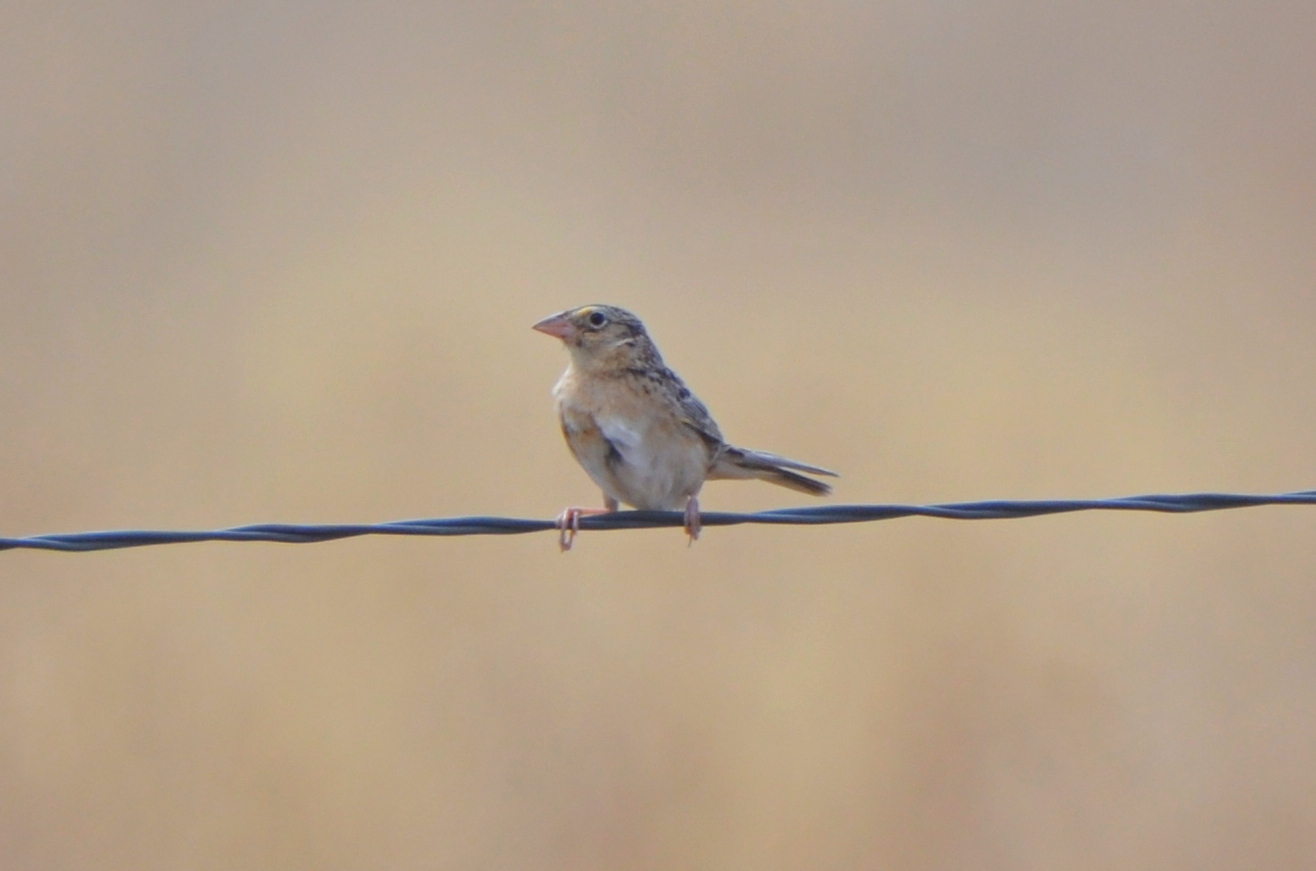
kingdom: Animalia
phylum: Chordata
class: Aves
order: Passeriformes
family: Passerellidae
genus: Ammodramus
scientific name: Ammodramus savannarum
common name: Grasshopper sparrow
